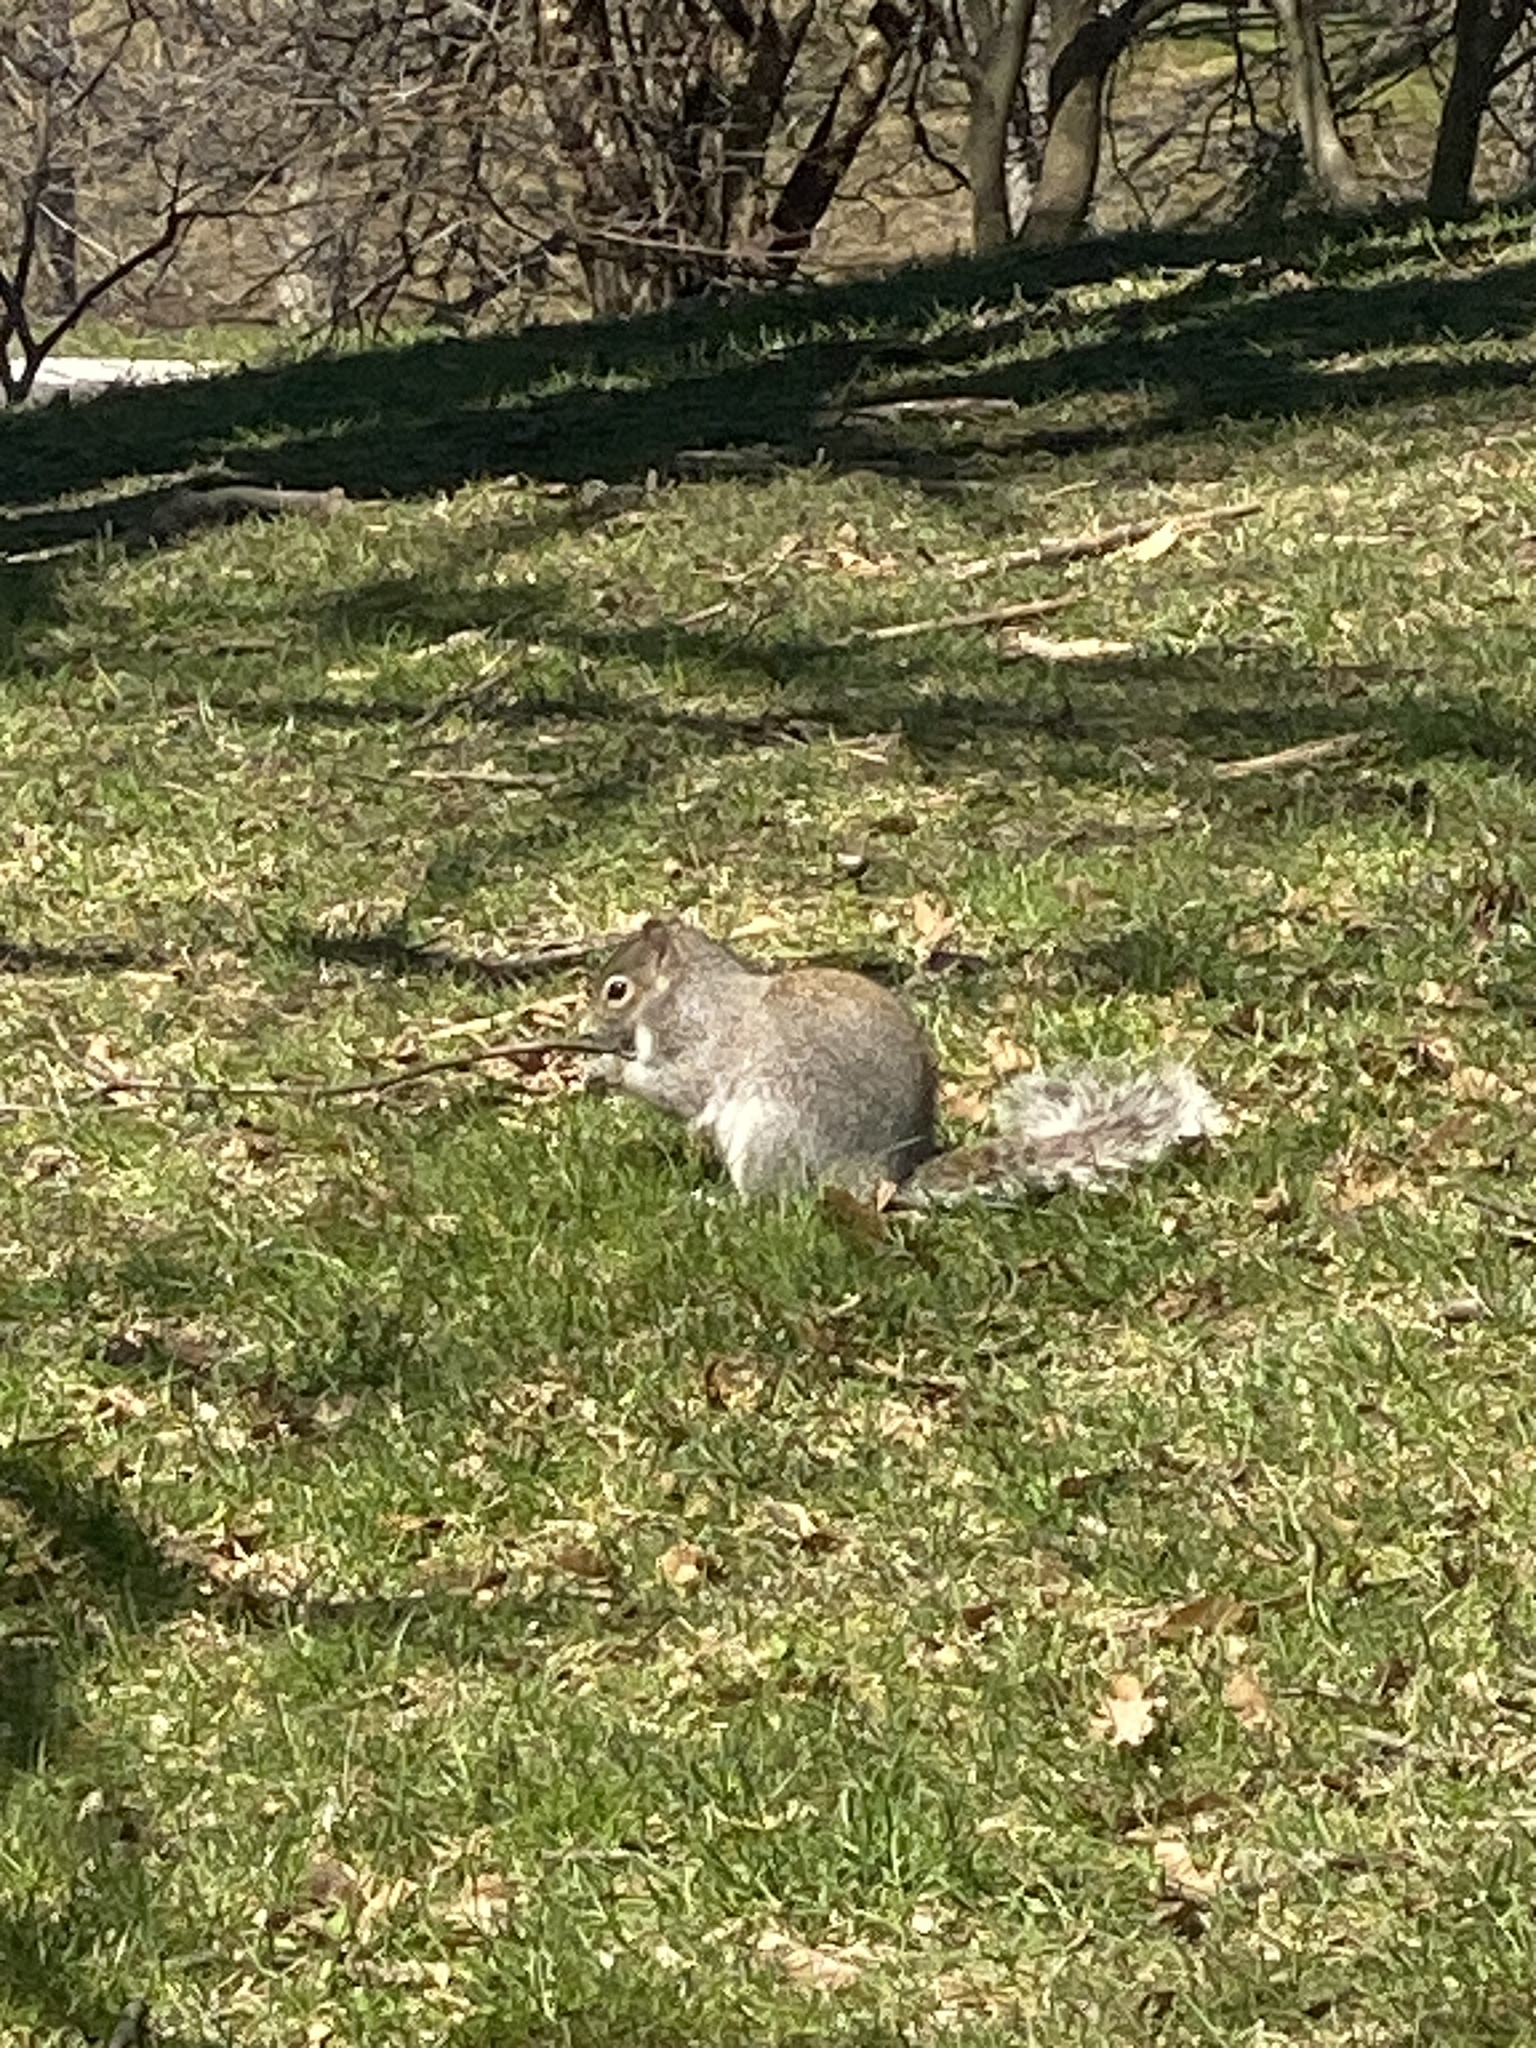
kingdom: Animalia
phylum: Chordata
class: Mammalia
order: Rodentia
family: Sciuridae
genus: Sciurus
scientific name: Sciurus carolinensis
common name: Eastern gray squirrel
